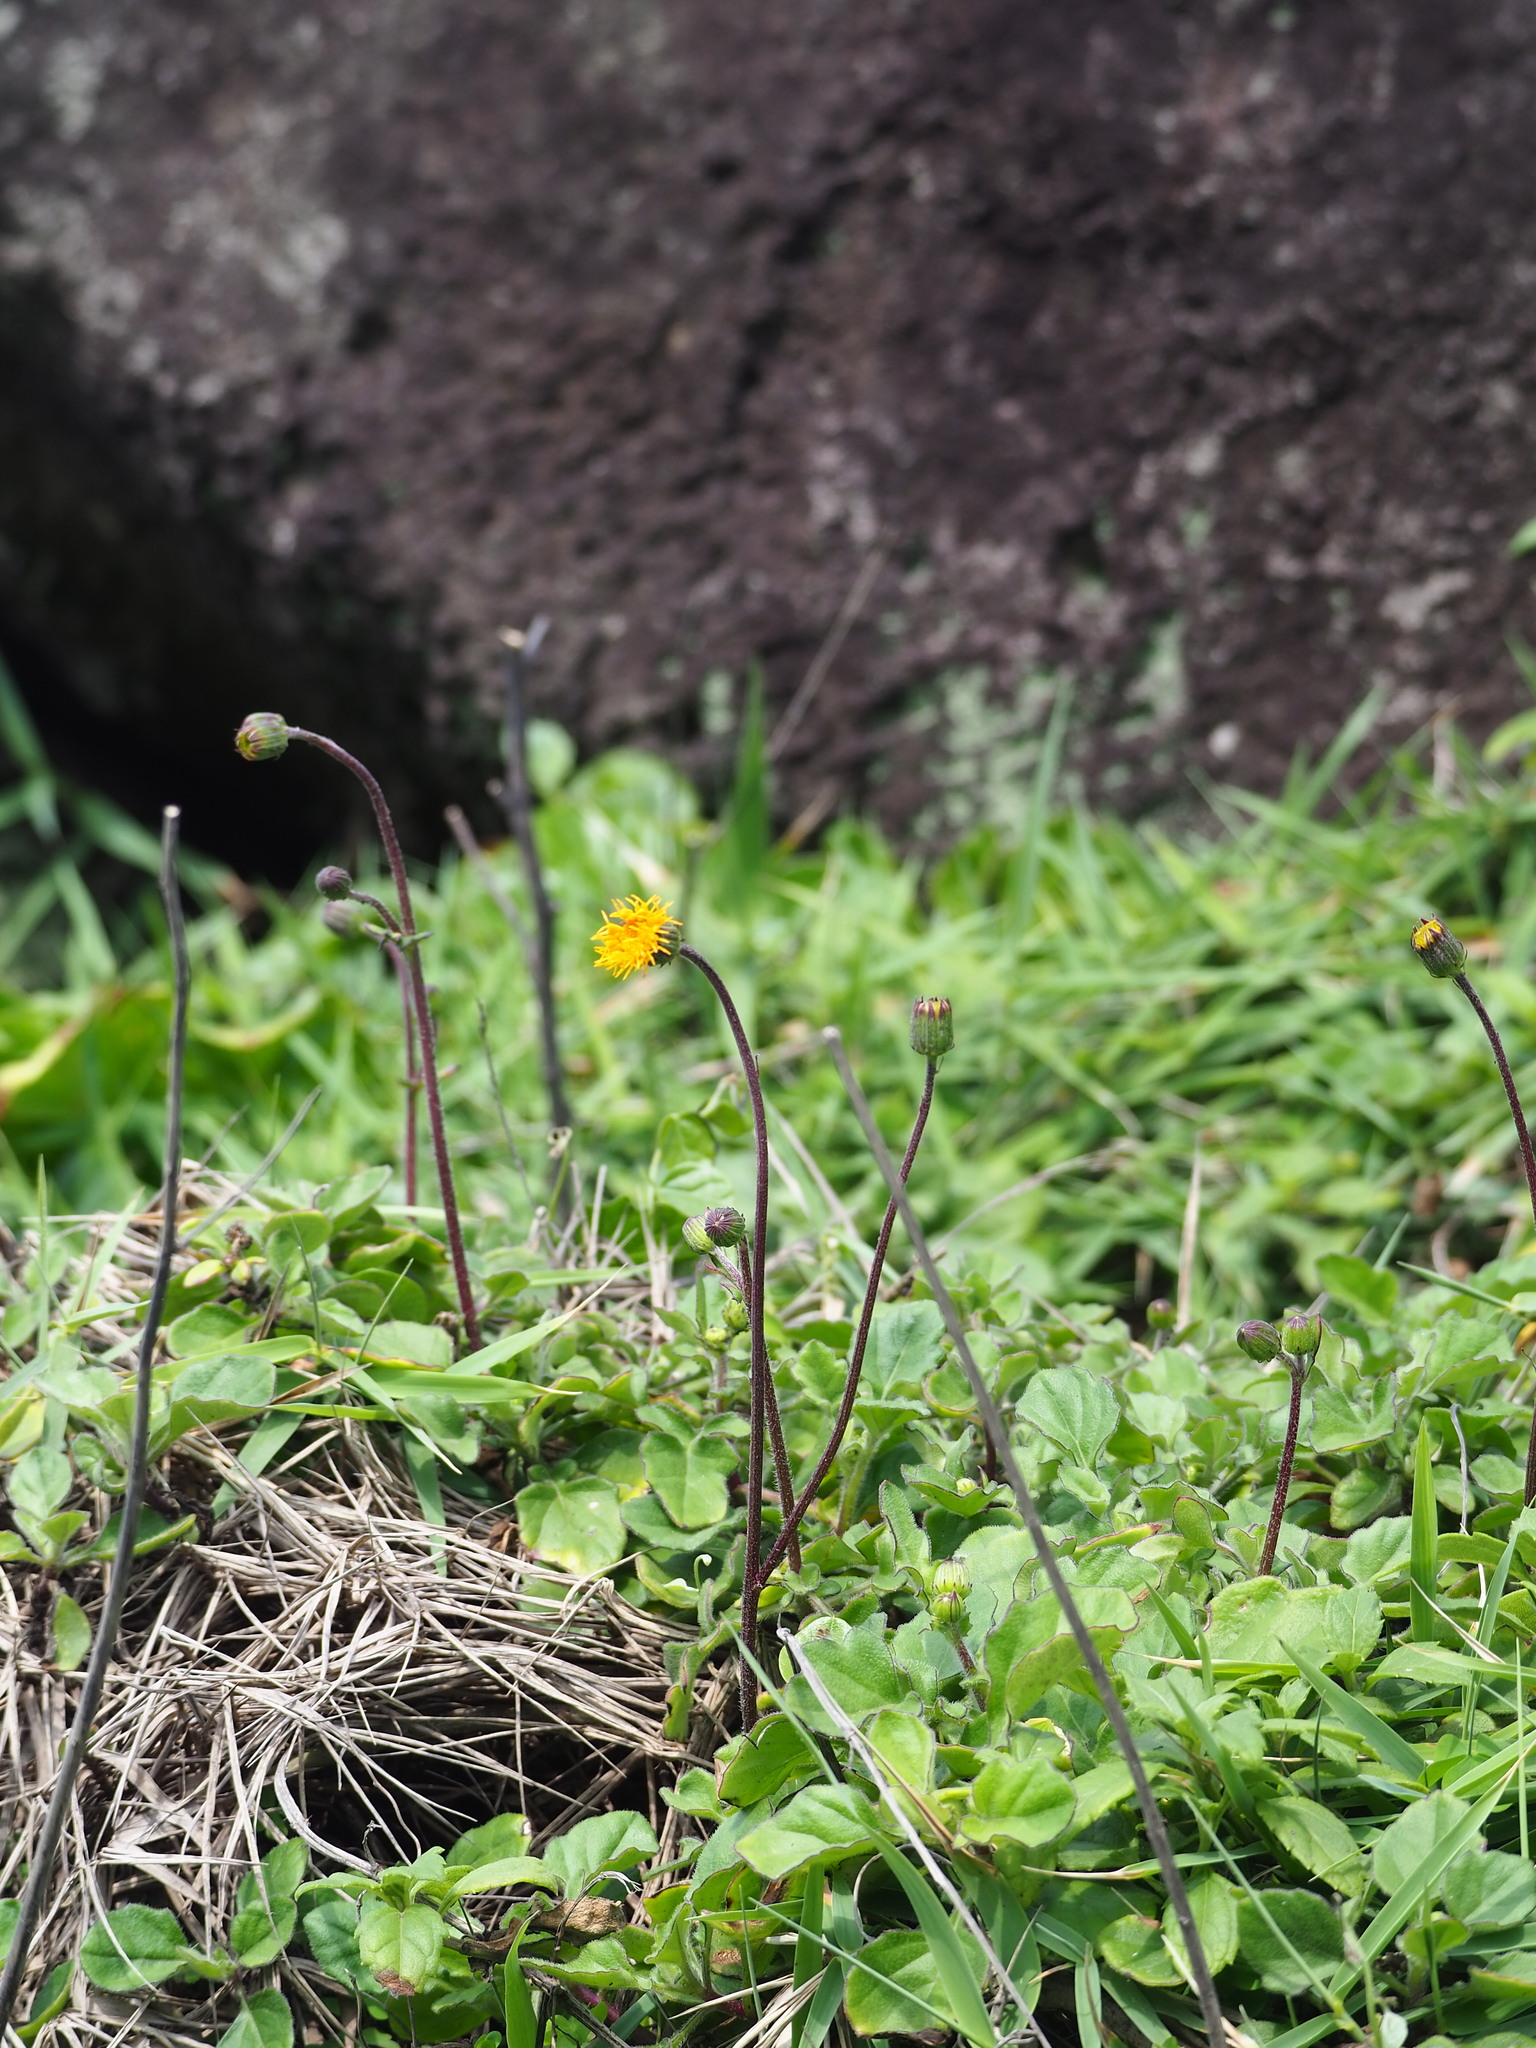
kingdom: Plantae
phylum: Tracheophyta
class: Magnoliopsida
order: Asterales
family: Asteraceae
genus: Gynura
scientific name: Gynura formosana
